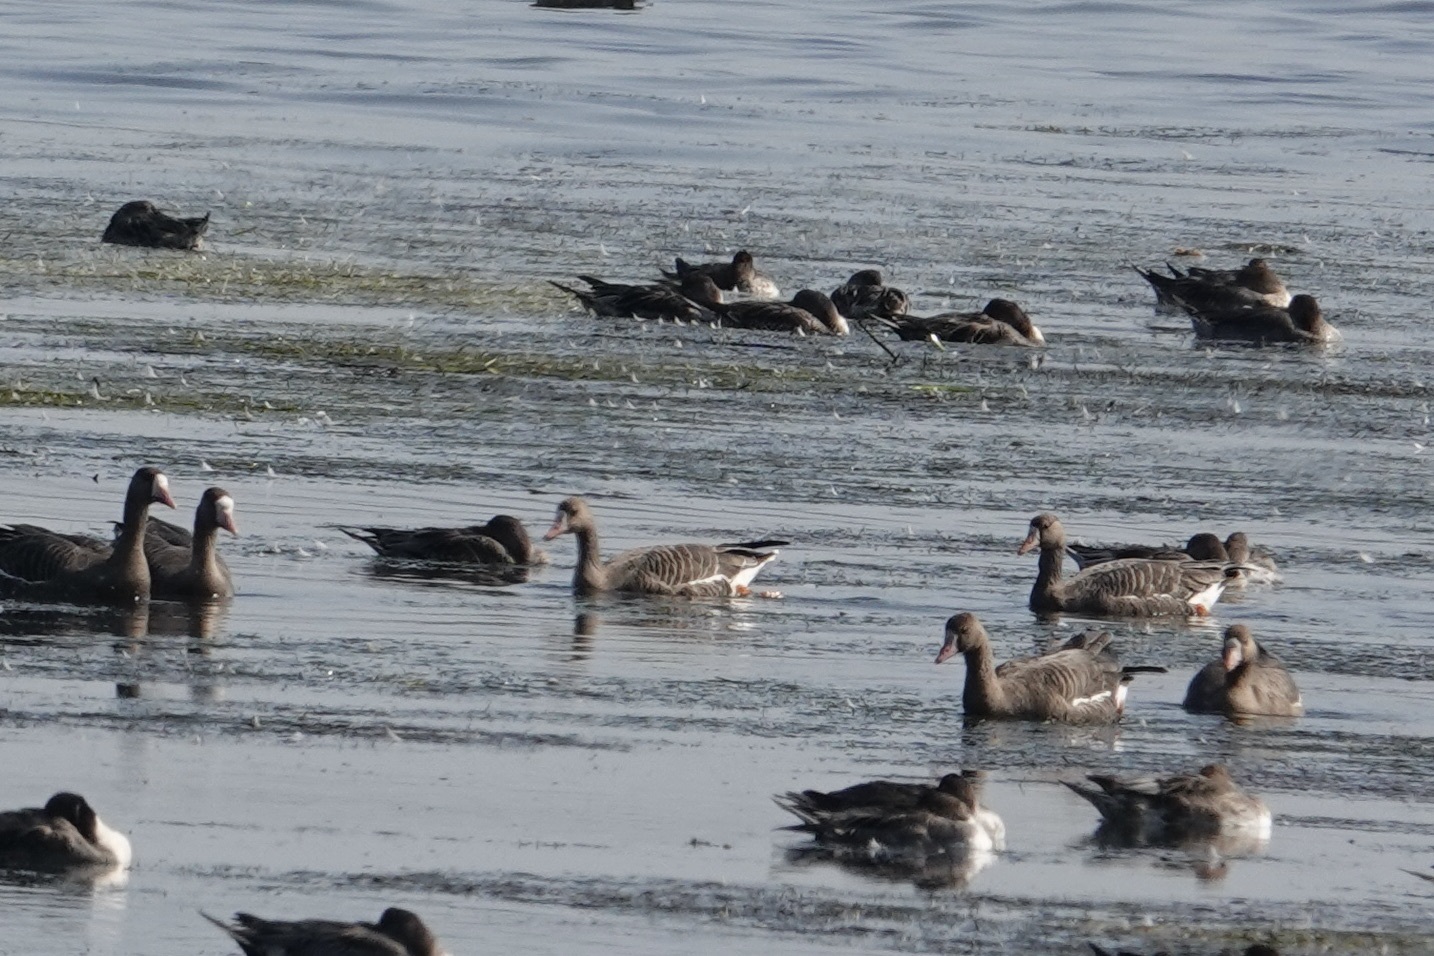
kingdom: Animalia
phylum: Chordata
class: Aves
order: Anseriformes
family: Anatidae
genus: Anser
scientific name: Anser albifrons
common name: Greater white-fronted goose
